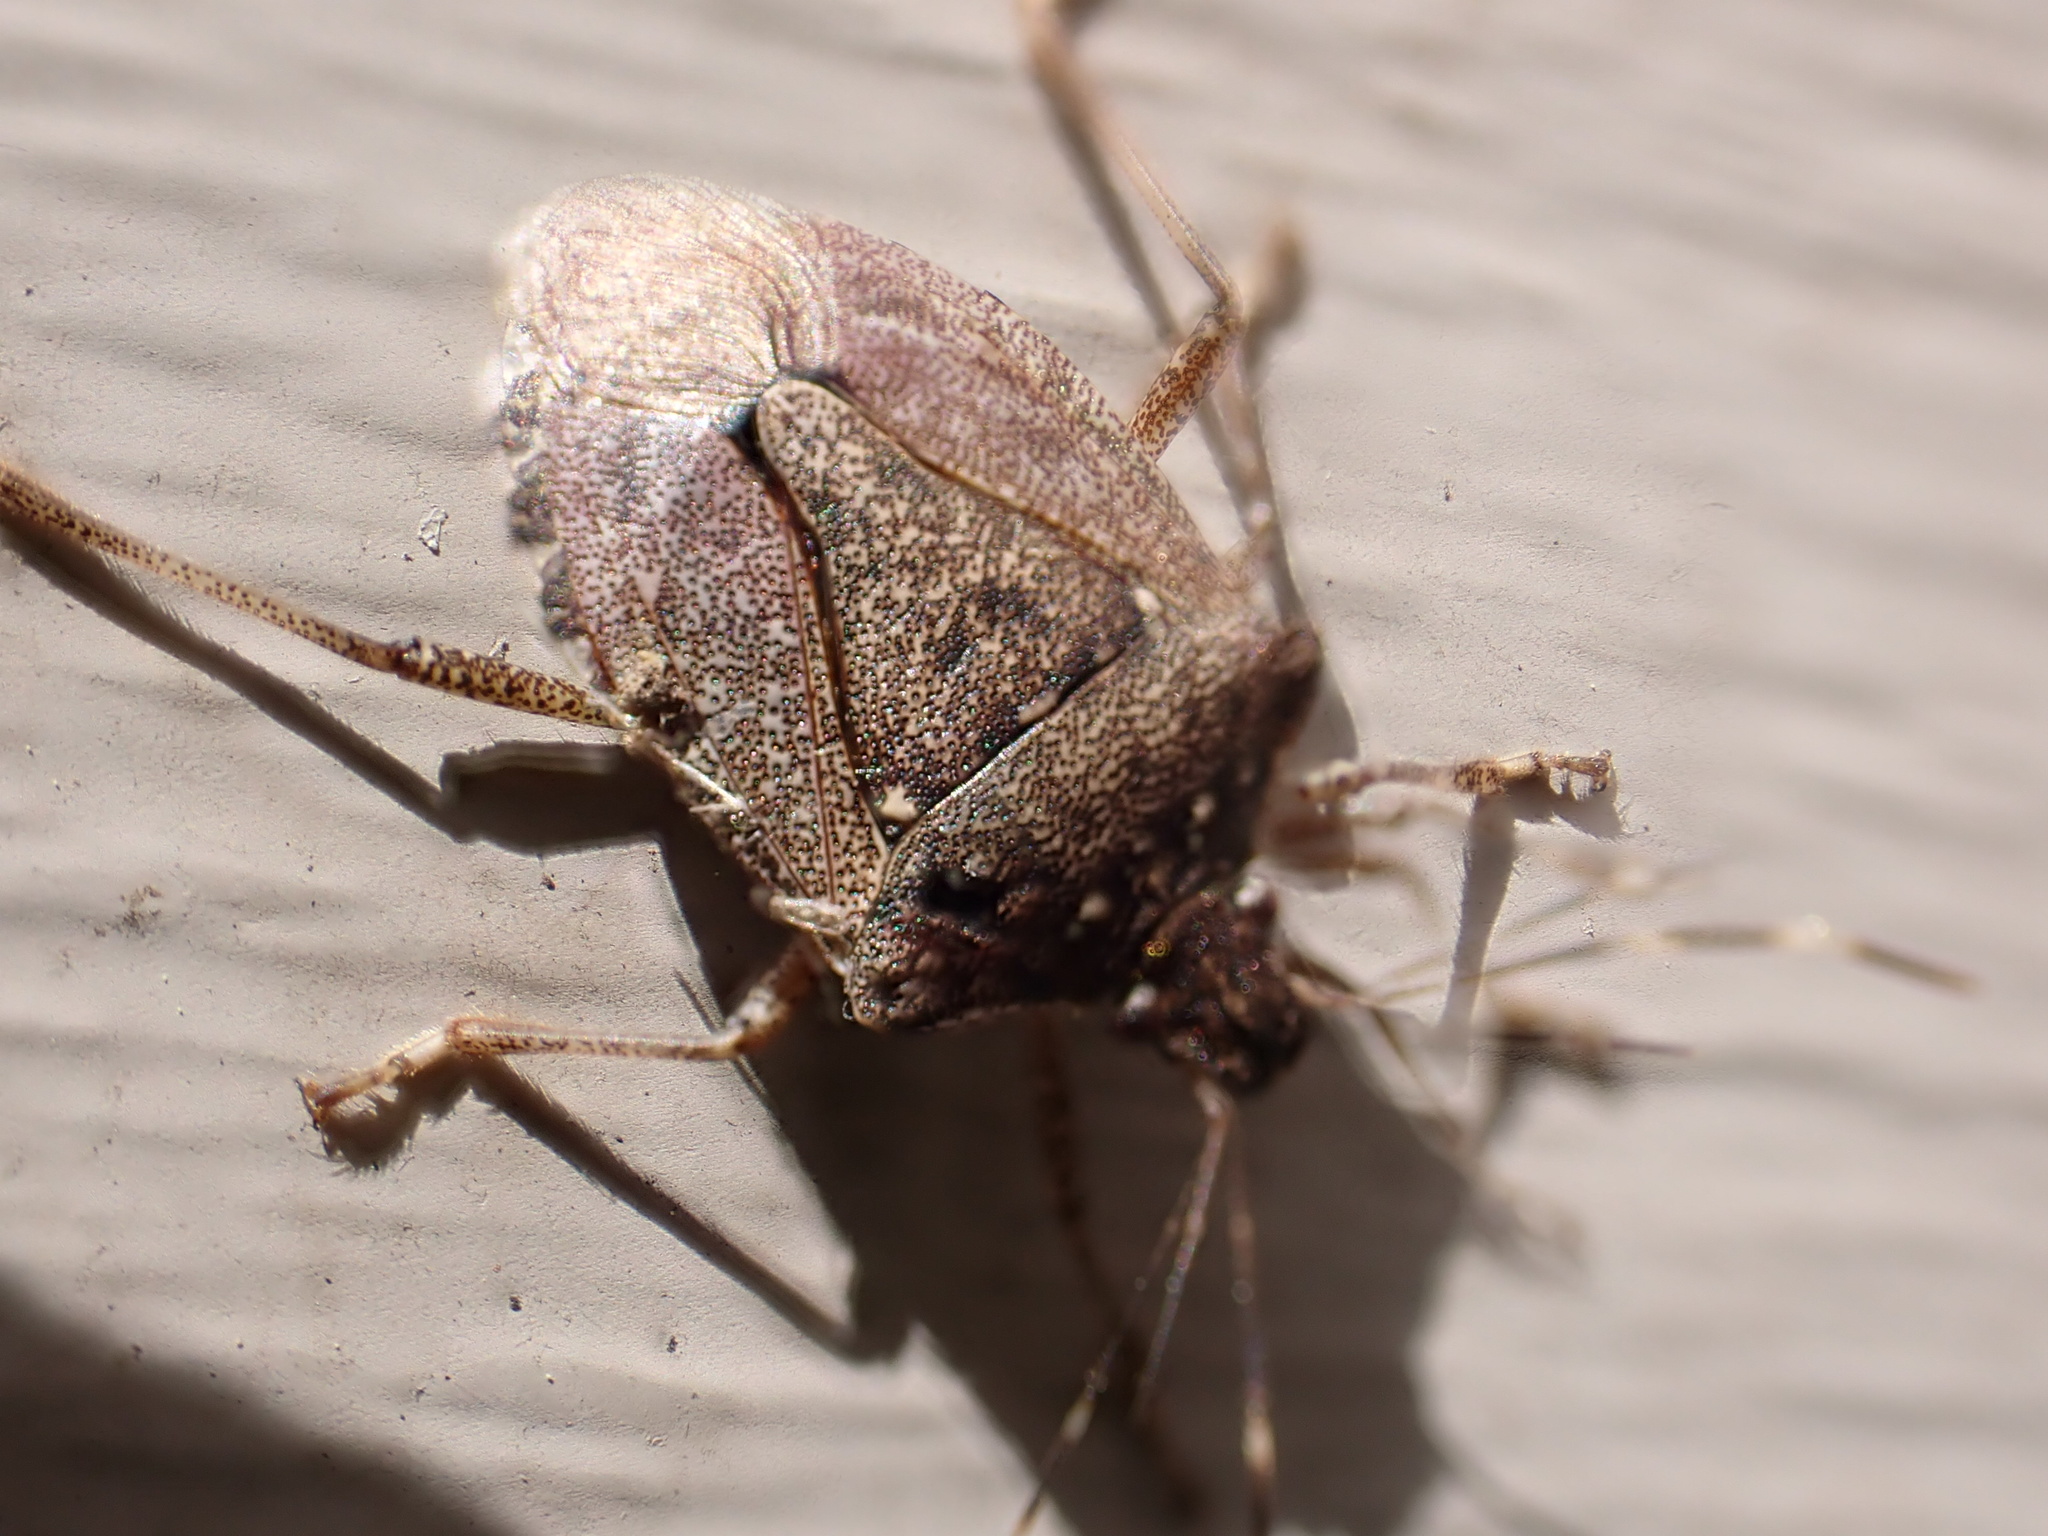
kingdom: Animalia
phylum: Arthropoda
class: Insecta
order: Hemiptera
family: Pentatomidae
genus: Halyomorpha
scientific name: Halyomorpha halys
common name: Brown marmorated stink bug
